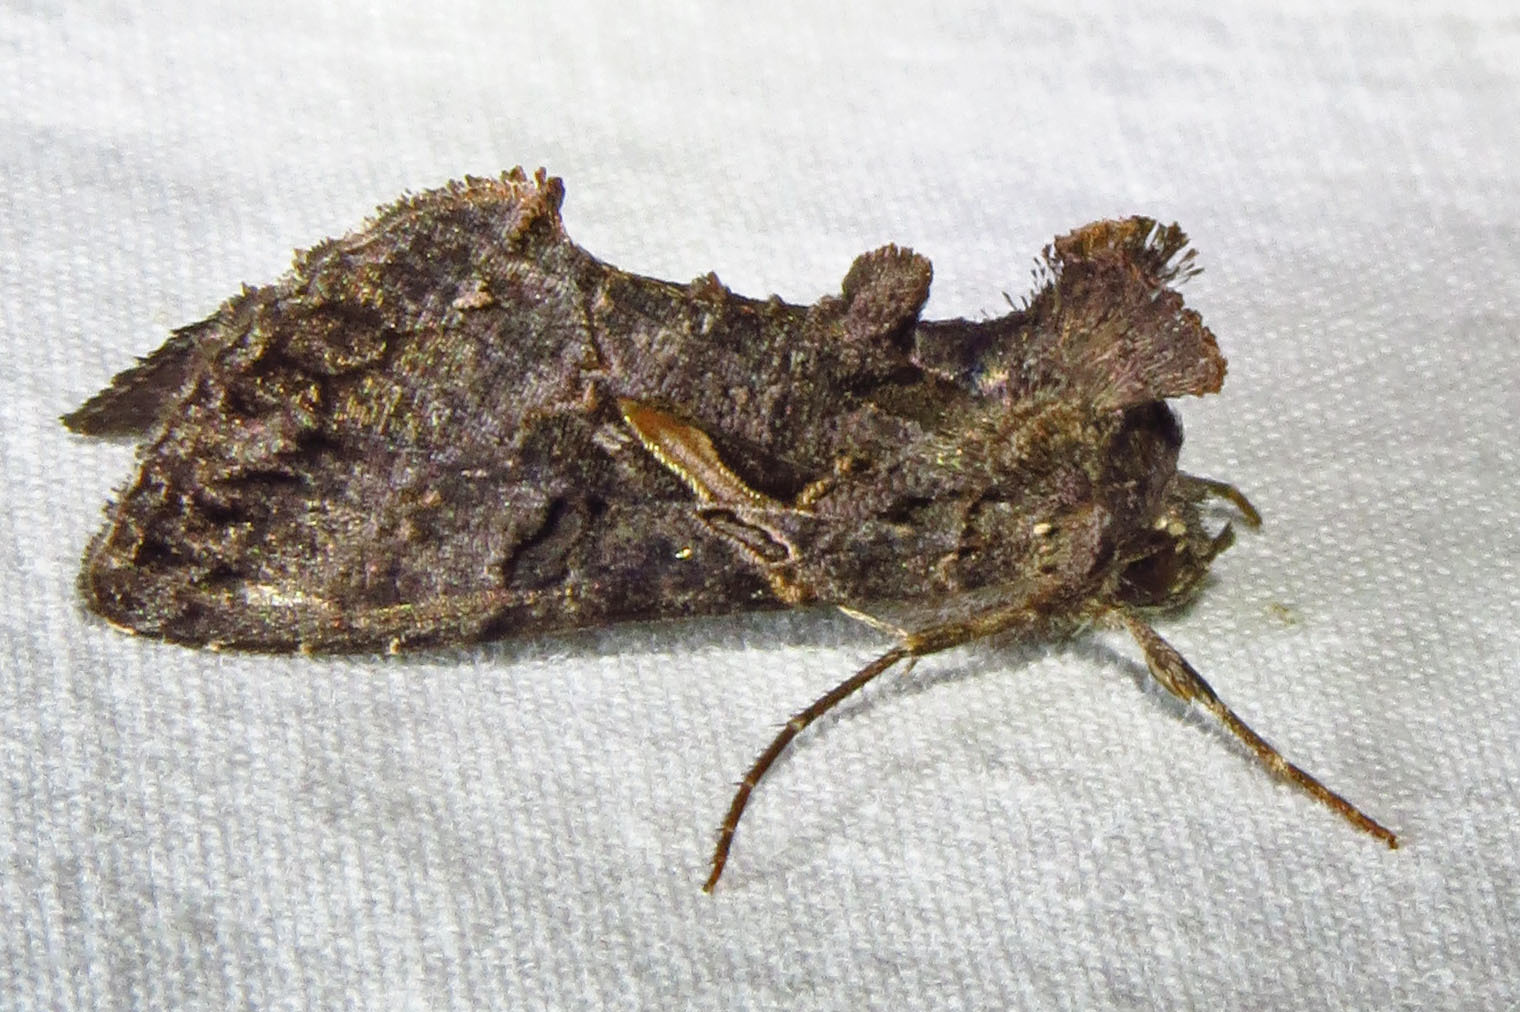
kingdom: Animalia
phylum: Arthropoda
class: Insecta
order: Lepidoptera
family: Noctuidae
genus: Ctenoplusia
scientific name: Ctenoplusia oxygramma
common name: Sharp-stigma looper moth
